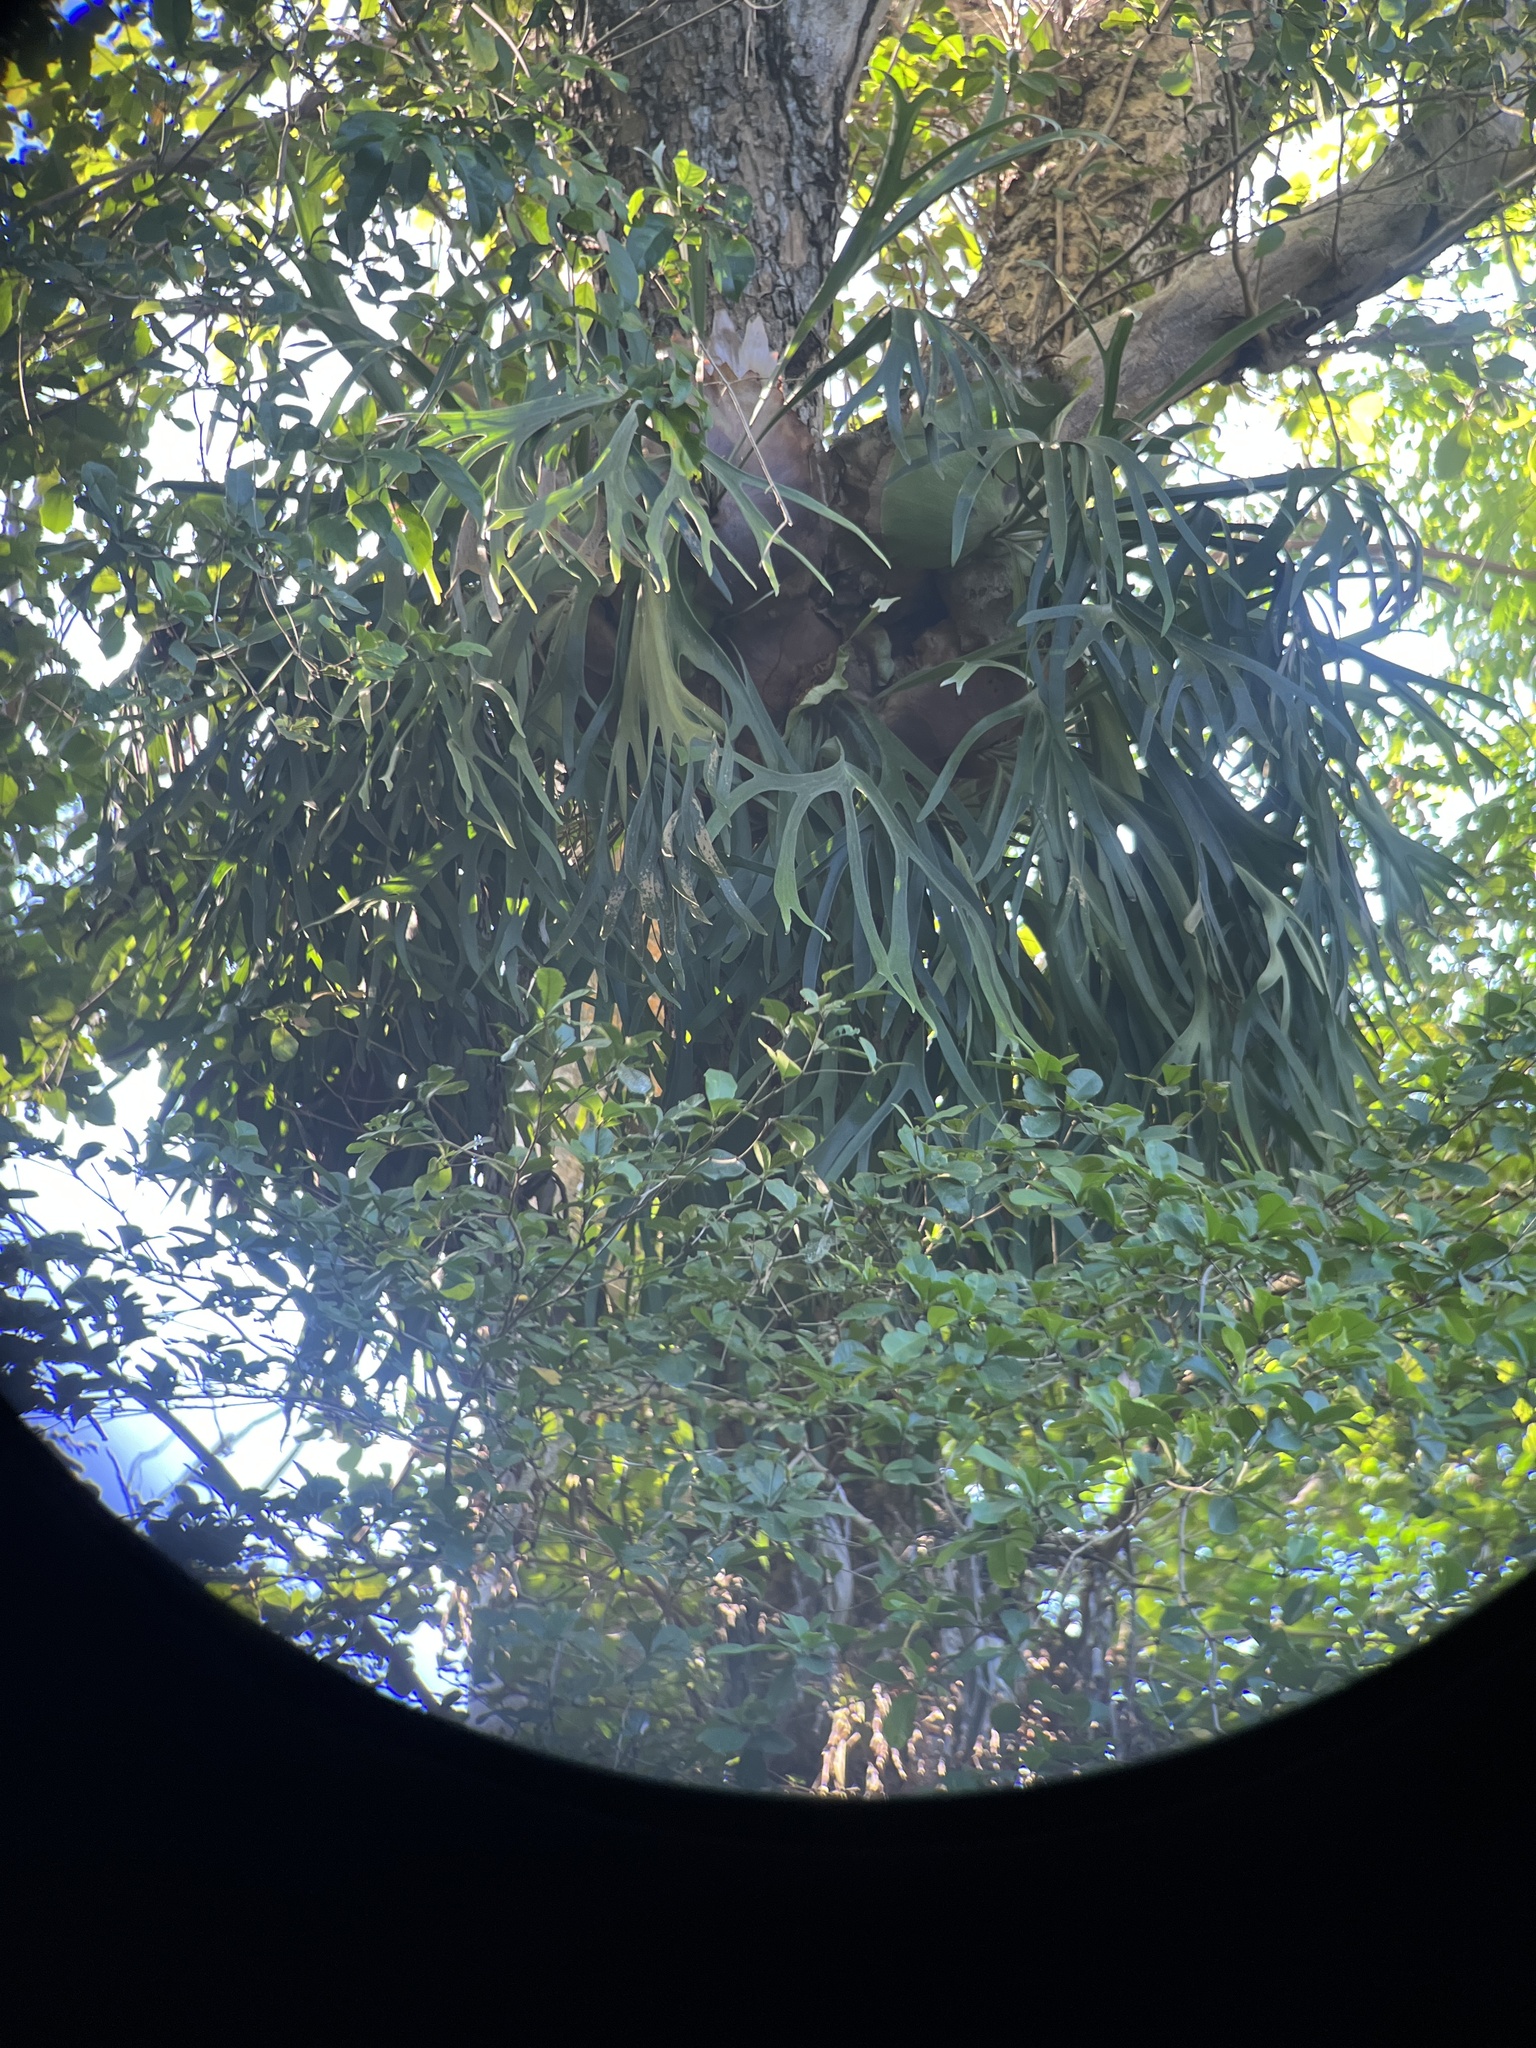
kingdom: Plantae
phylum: Tracheophyta
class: Polypodiopsida
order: Polypodiales
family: Polypodiaceae
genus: Platycerium
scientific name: Platycerium bifurcatum
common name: Elkhorn fern
